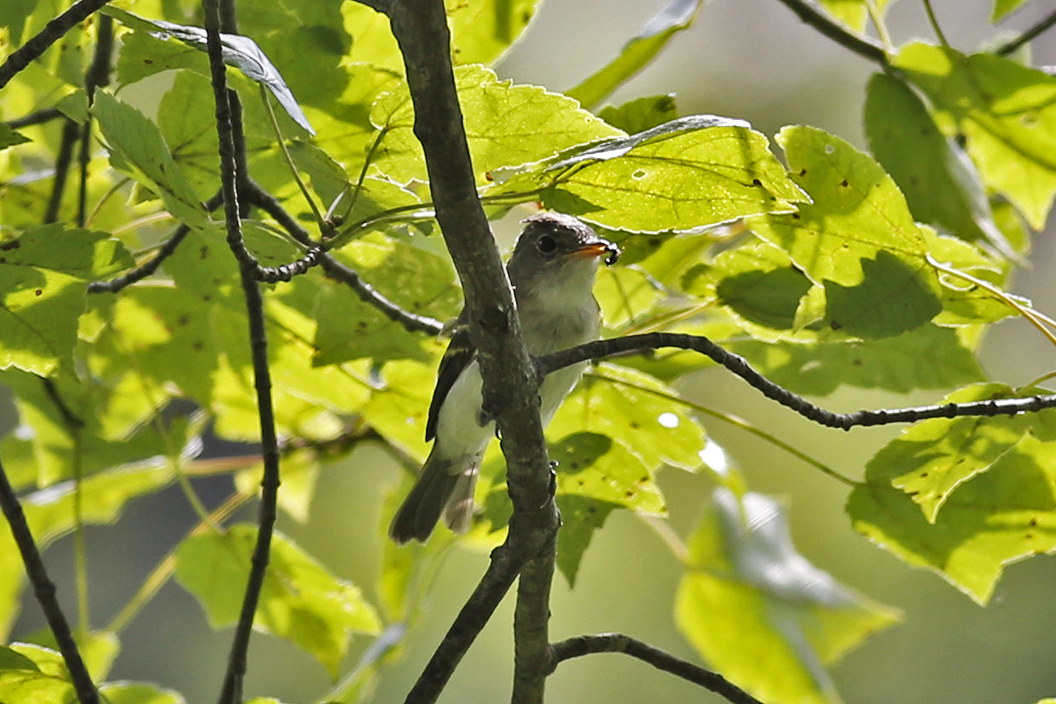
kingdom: Animalia
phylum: Chordata
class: Aves
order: Passeriformes
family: Tyrannidae
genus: Empidonax
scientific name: Empidonax
